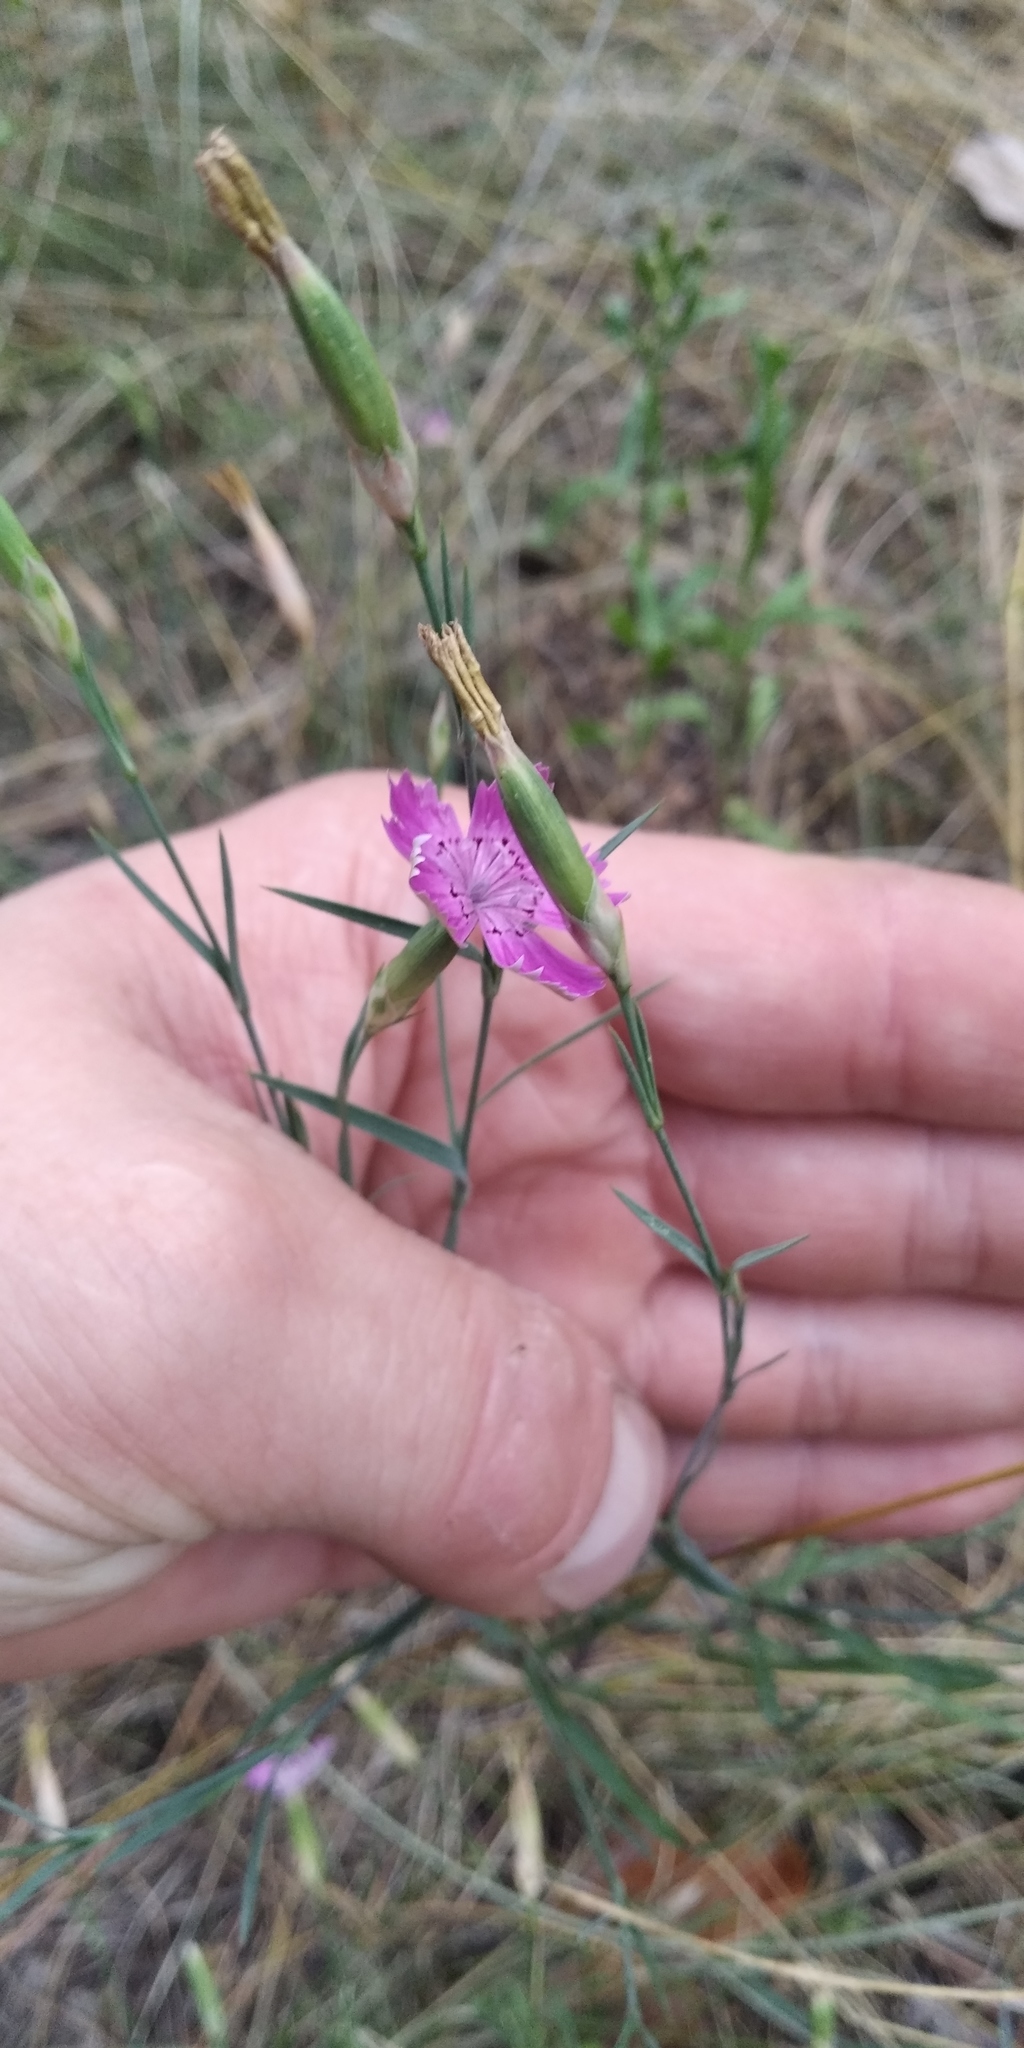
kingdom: Plantae
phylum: Tracheophyta
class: Magnoliopsida
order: Caryophyllales
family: Caryophyllaceae
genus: Dianthus
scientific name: Dianthus campestris
